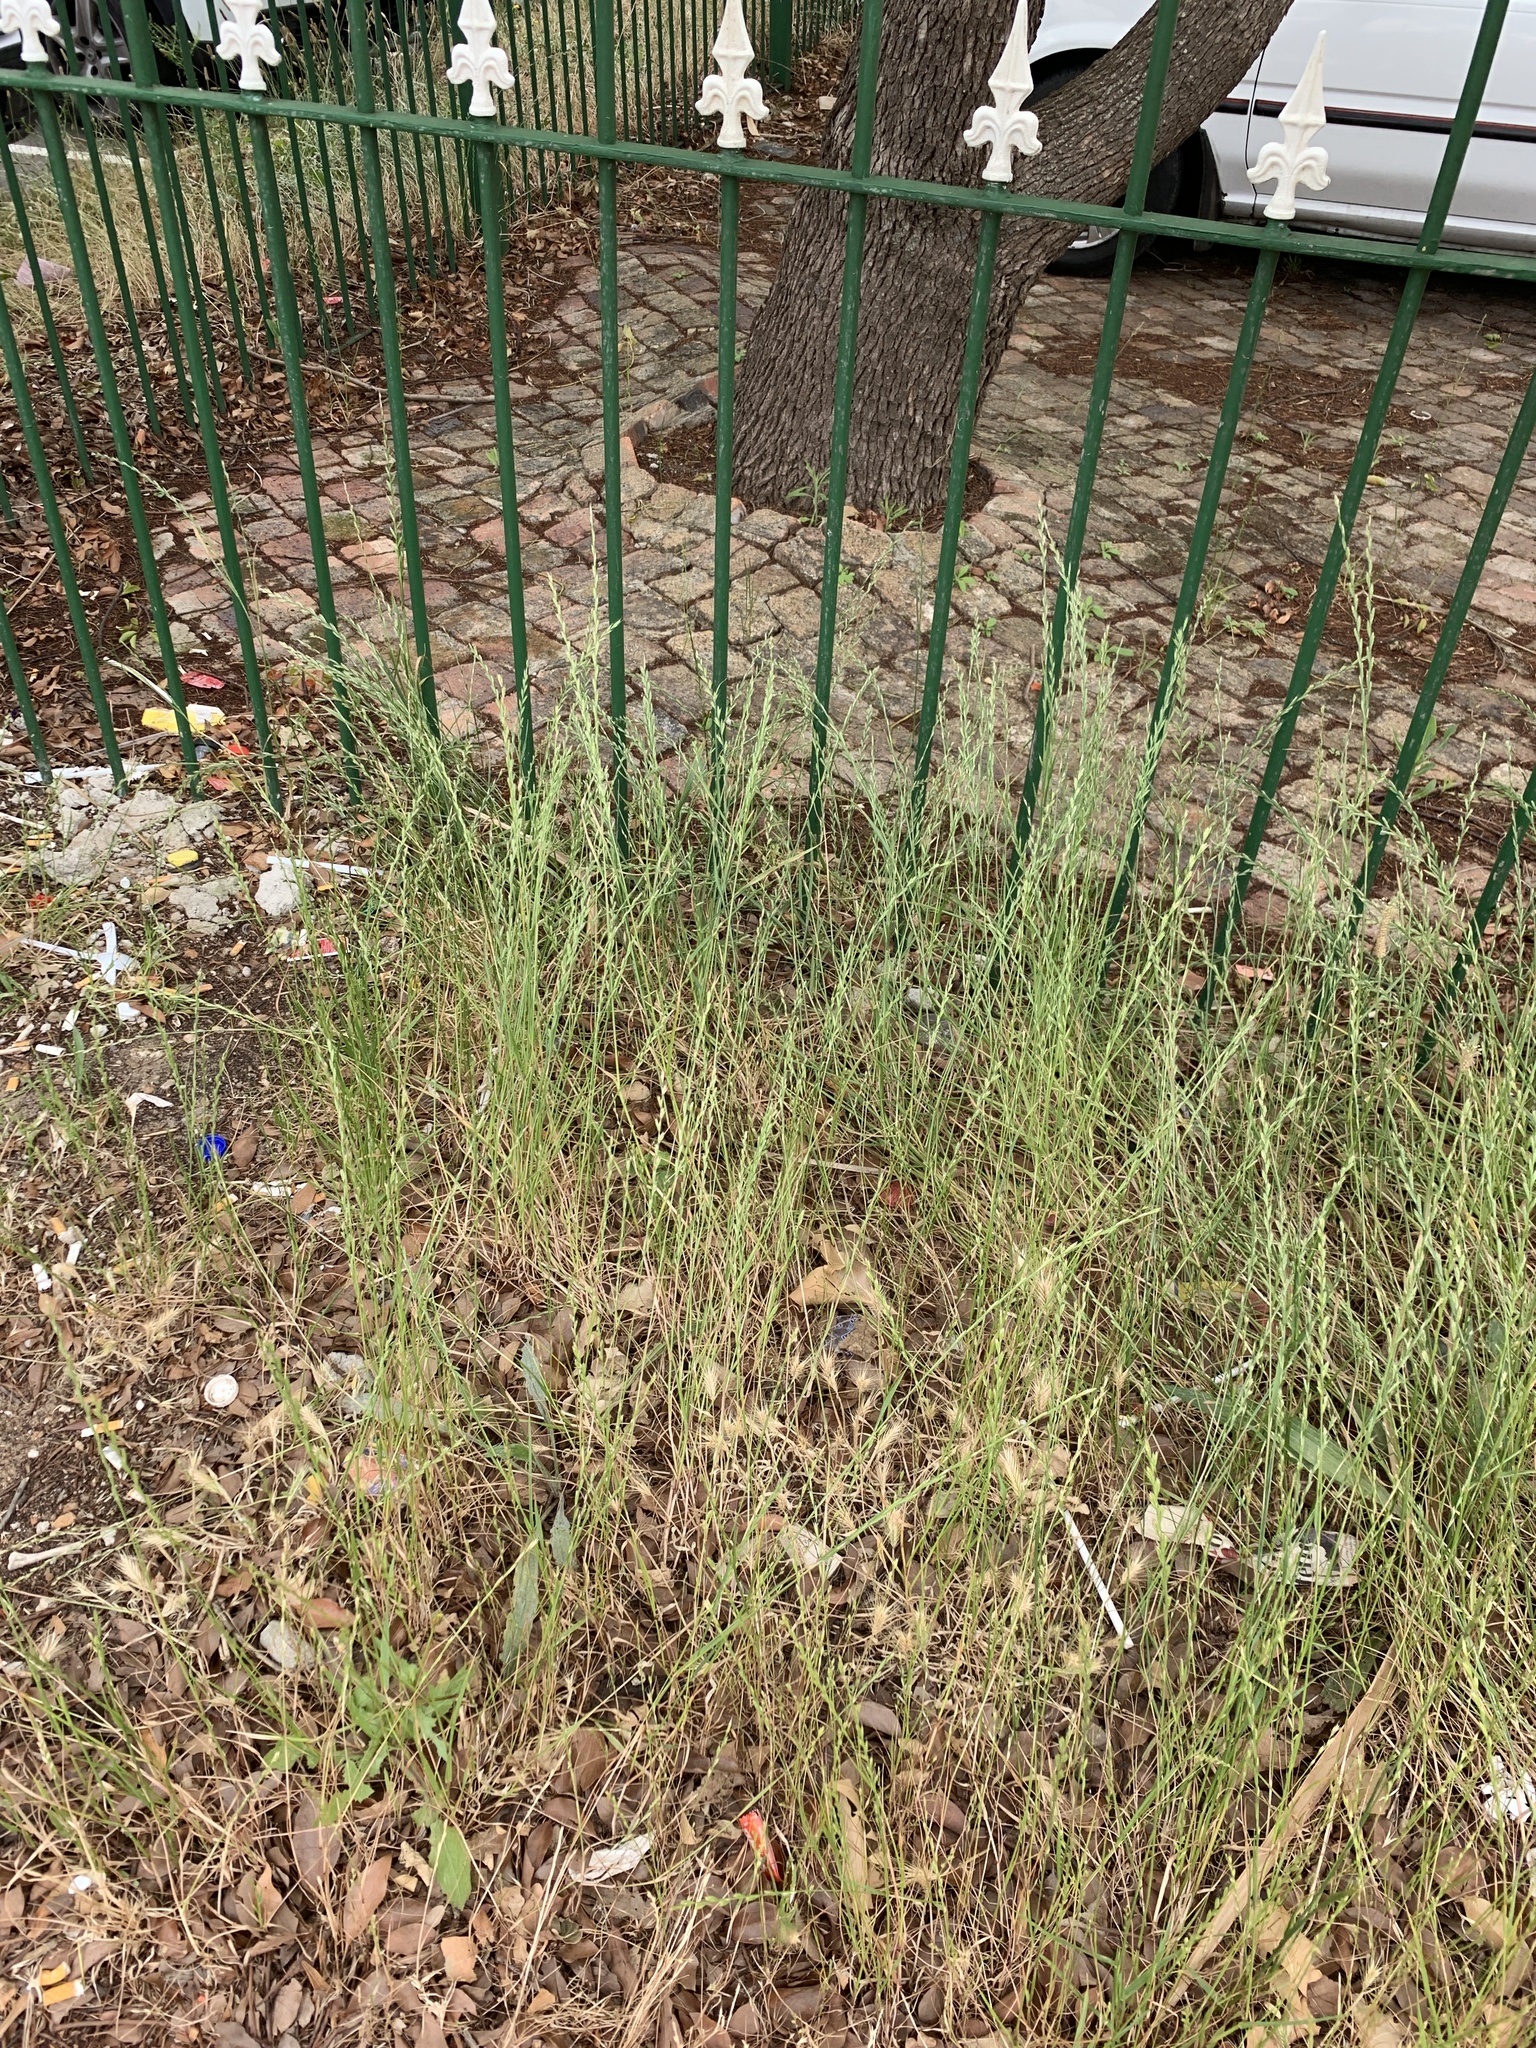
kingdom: Plantae
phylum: Tracheophyta
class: Liliopsida
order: Poales
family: Poaceae
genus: Lolium
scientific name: Lolium multiflorum
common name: Annual ryegrass
